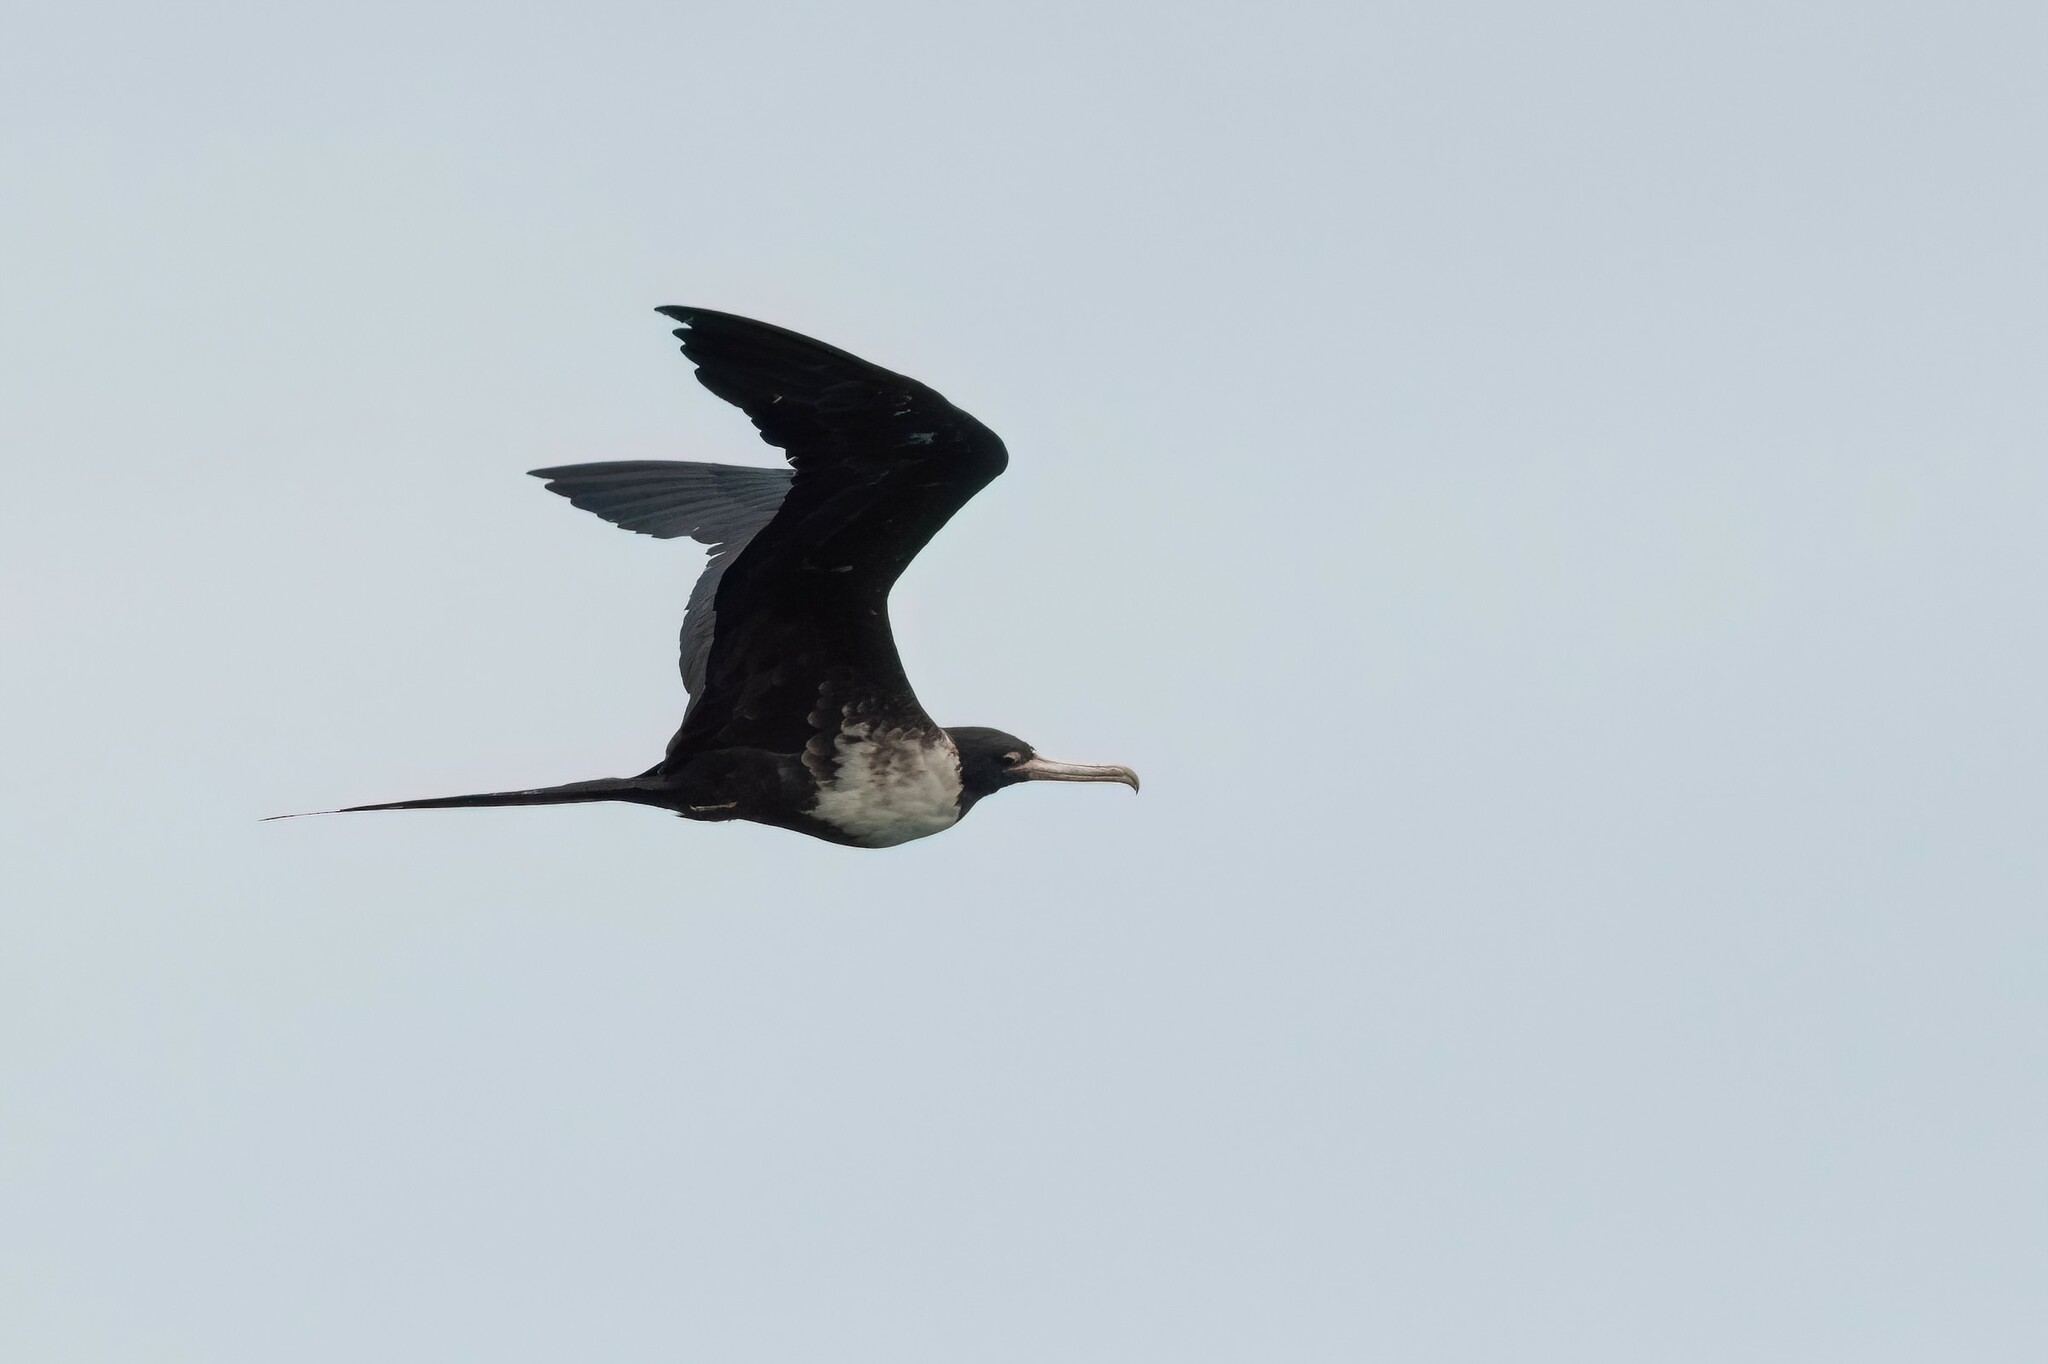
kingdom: Animalia
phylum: Chordata
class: Aves
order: Suliformes
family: Fregatidae
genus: Fregata
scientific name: Fregata magnificens
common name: Magnificent frigatebird
